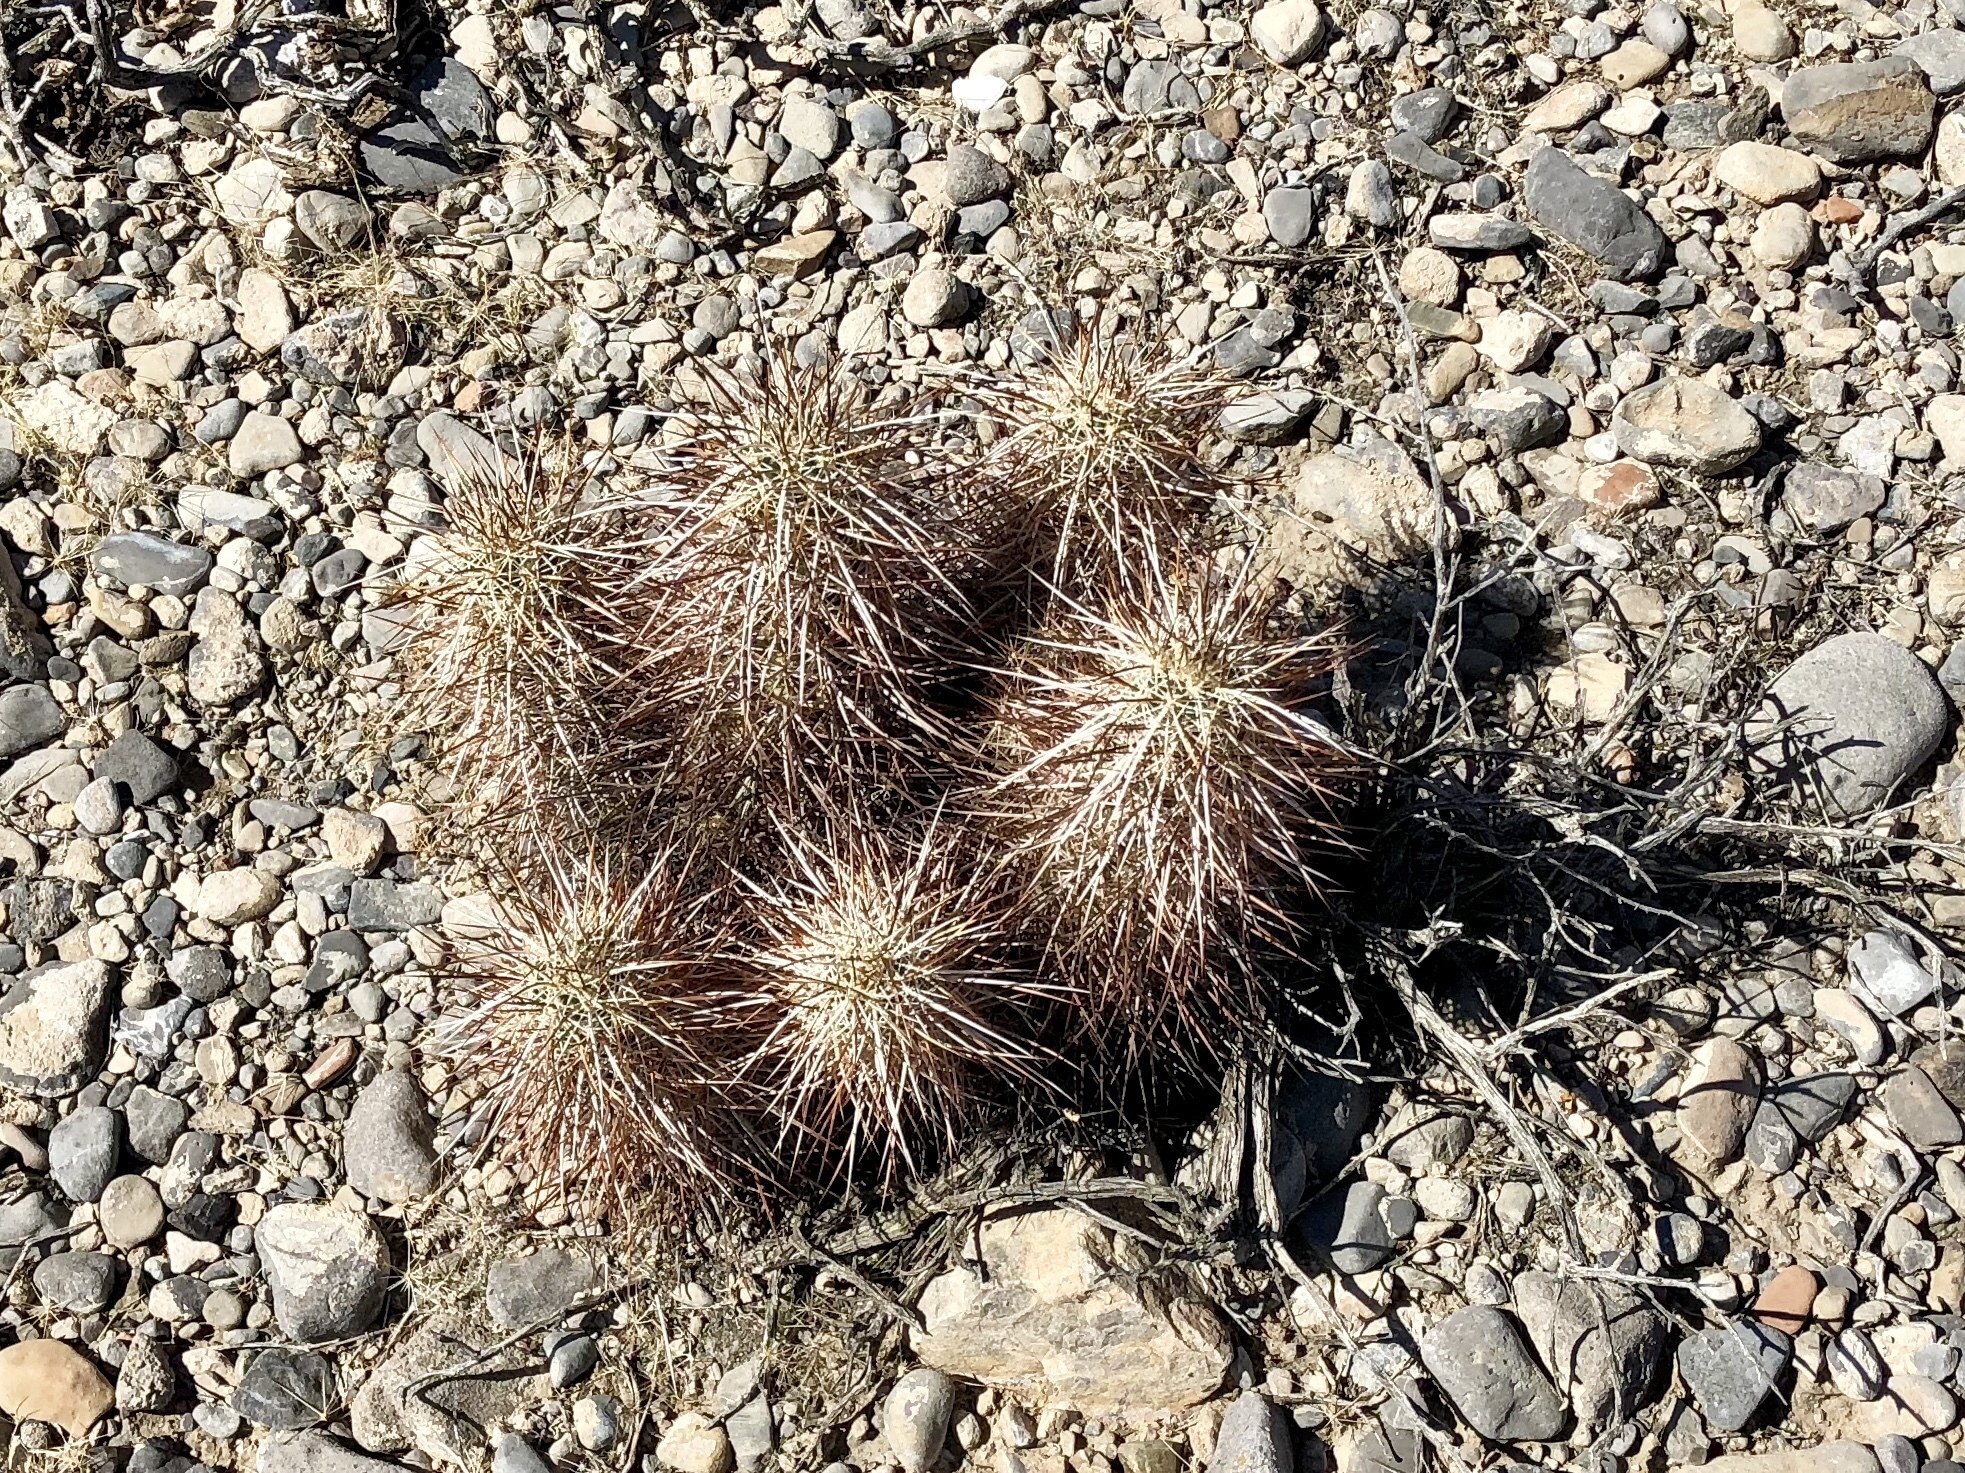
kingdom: Plantae
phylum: Tracheophyta
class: Magnoliopsida
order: Caryophyllales
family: Cactaceae
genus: Echinocereus
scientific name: Echinocereus engelmannii
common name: Engelmann's hedgehog cactus
